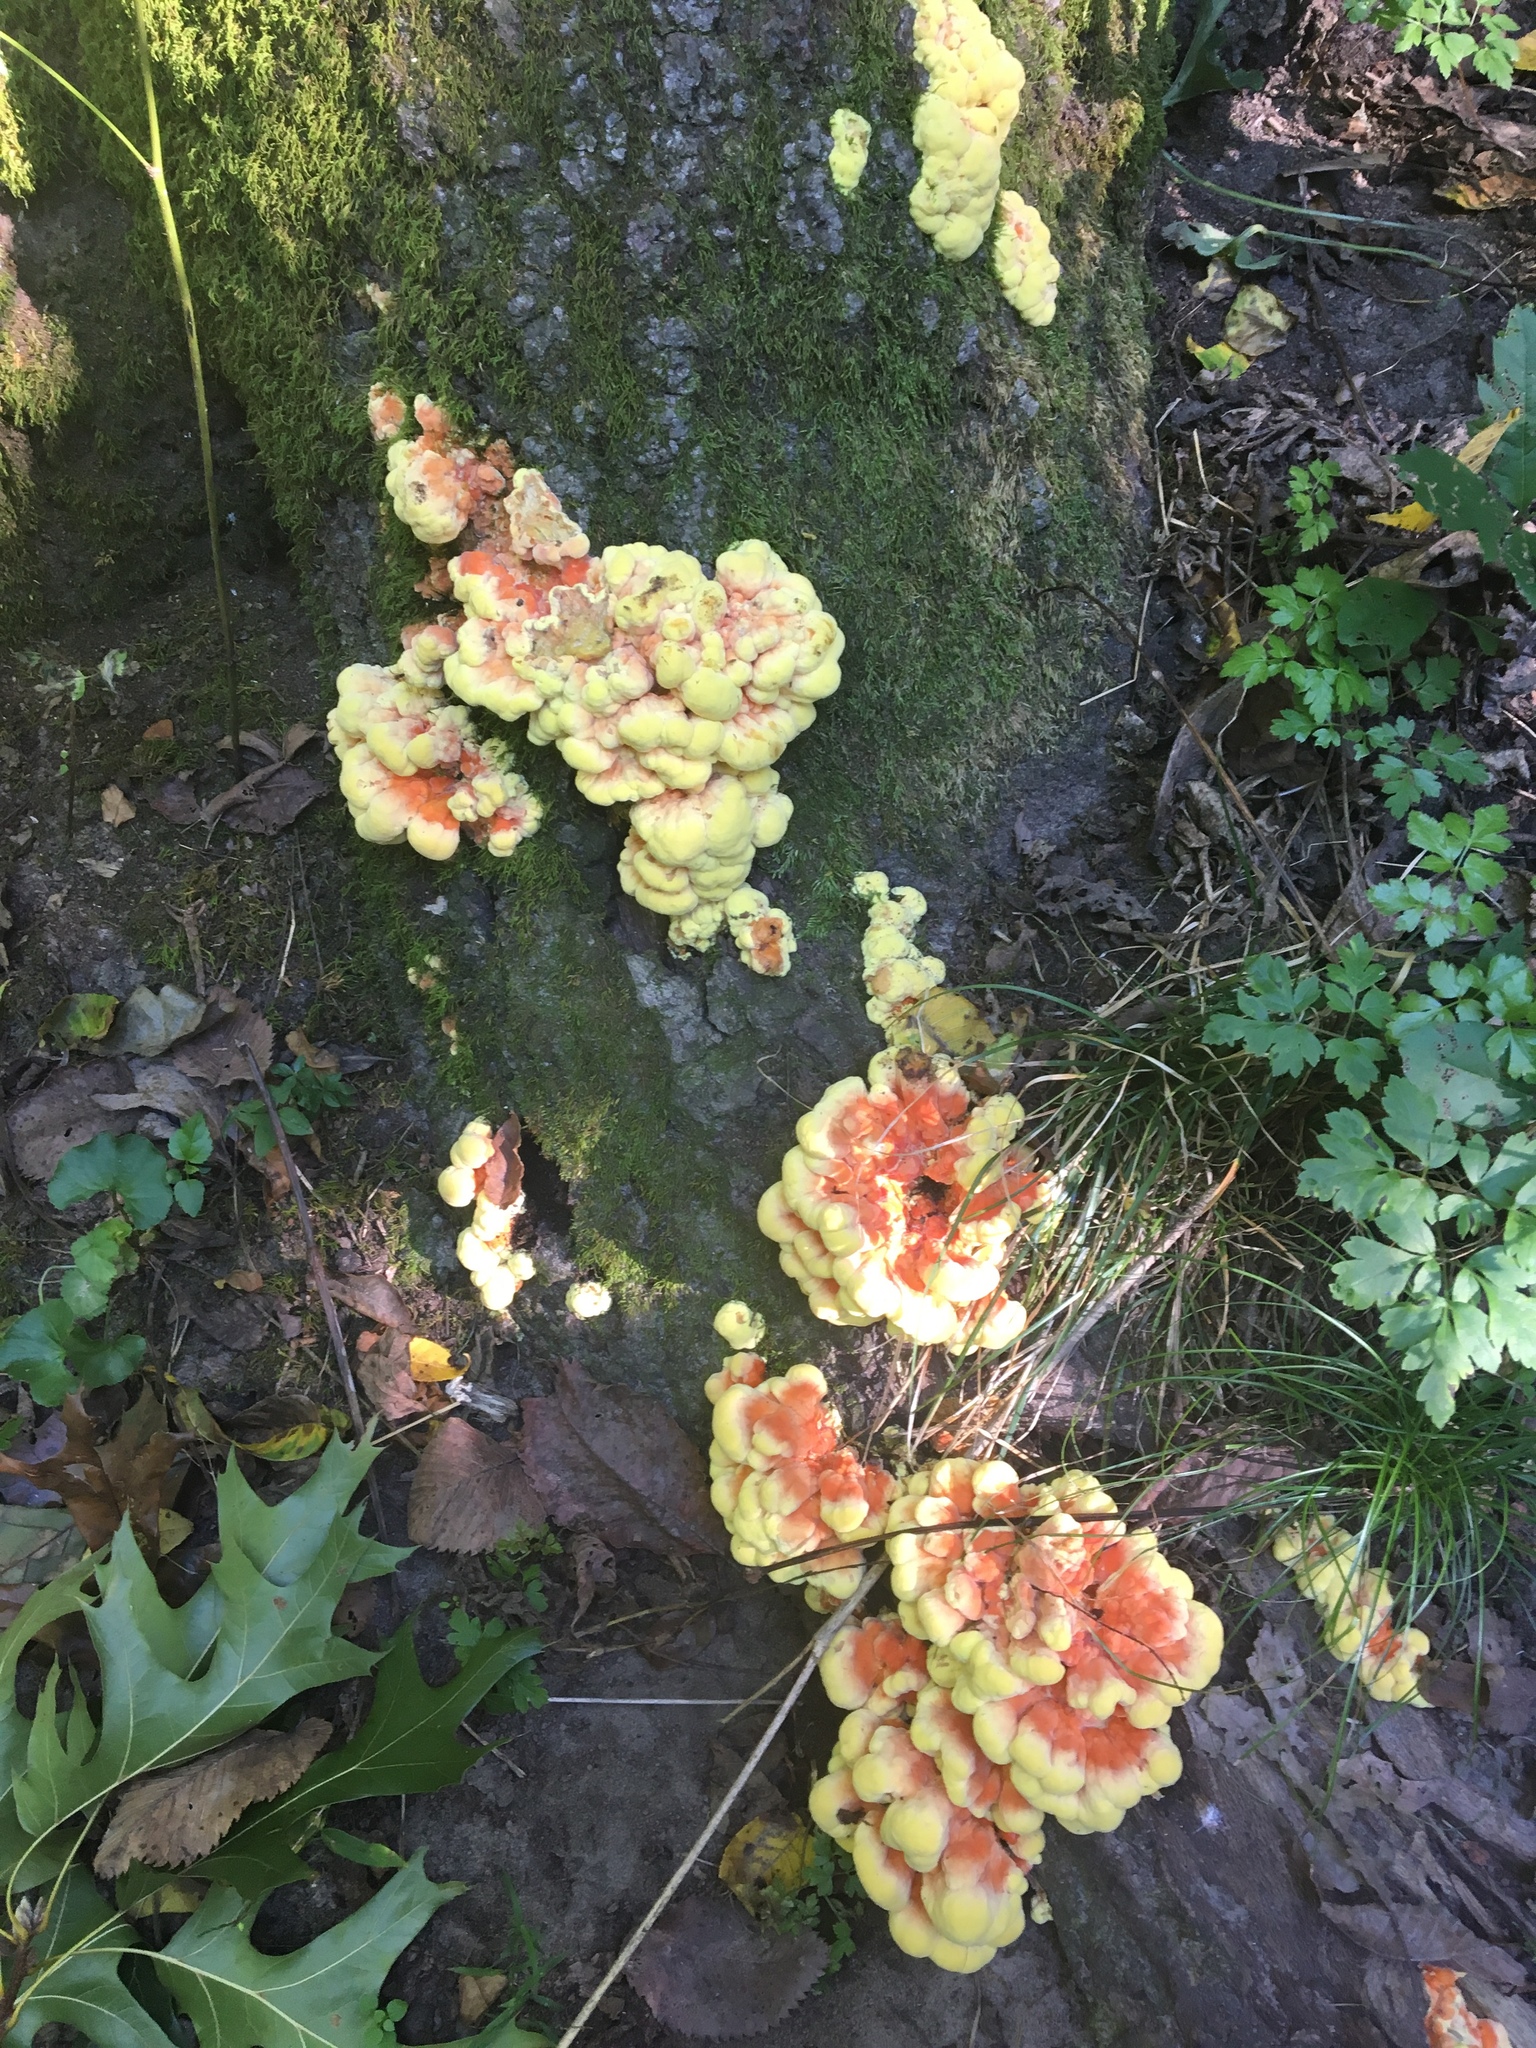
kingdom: Fungi
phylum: Basidiomycota
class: Agaricomycetes
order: Polyporales
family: Laetiporaceae
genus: Laetiporus
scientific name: Laetiporus sulphureus
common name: Chicken of the woods
